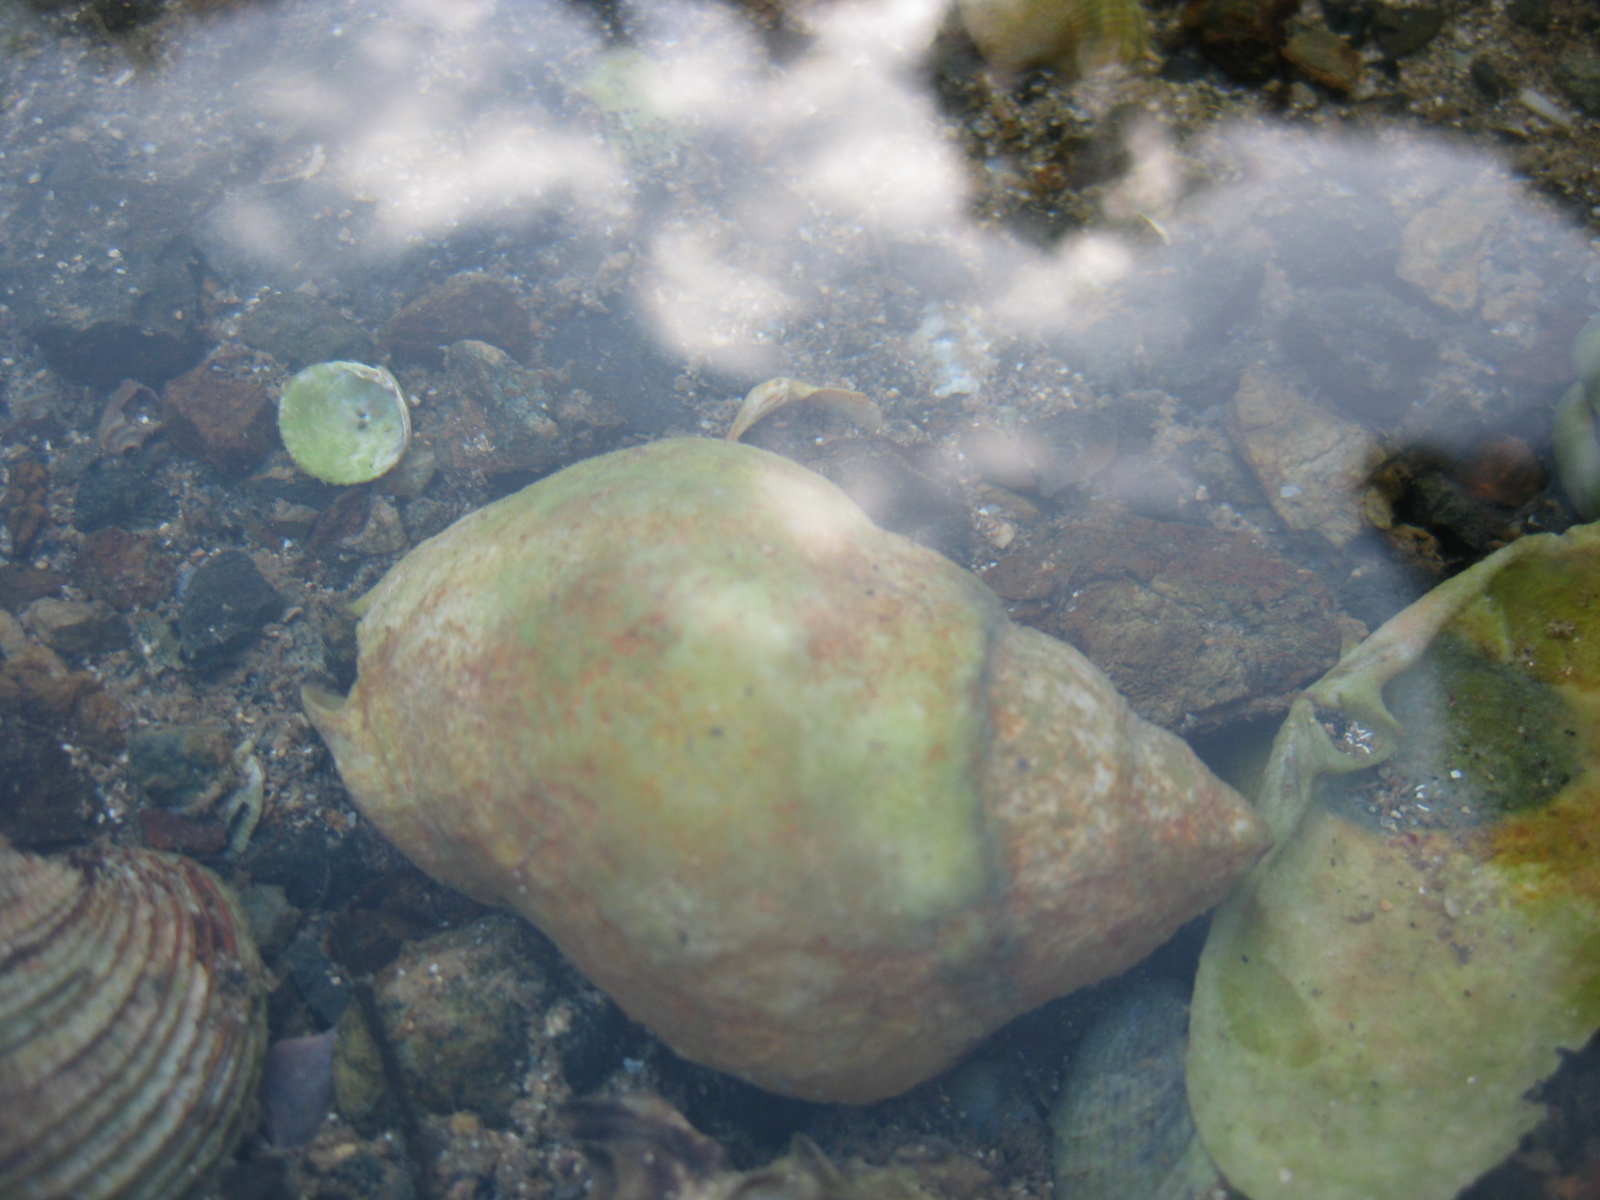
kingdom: Animalia
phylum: Mollusca
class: Gastropoda
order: Neogastropoda
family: Cominellidae
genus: Cominella
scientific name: Cominella adspersa
